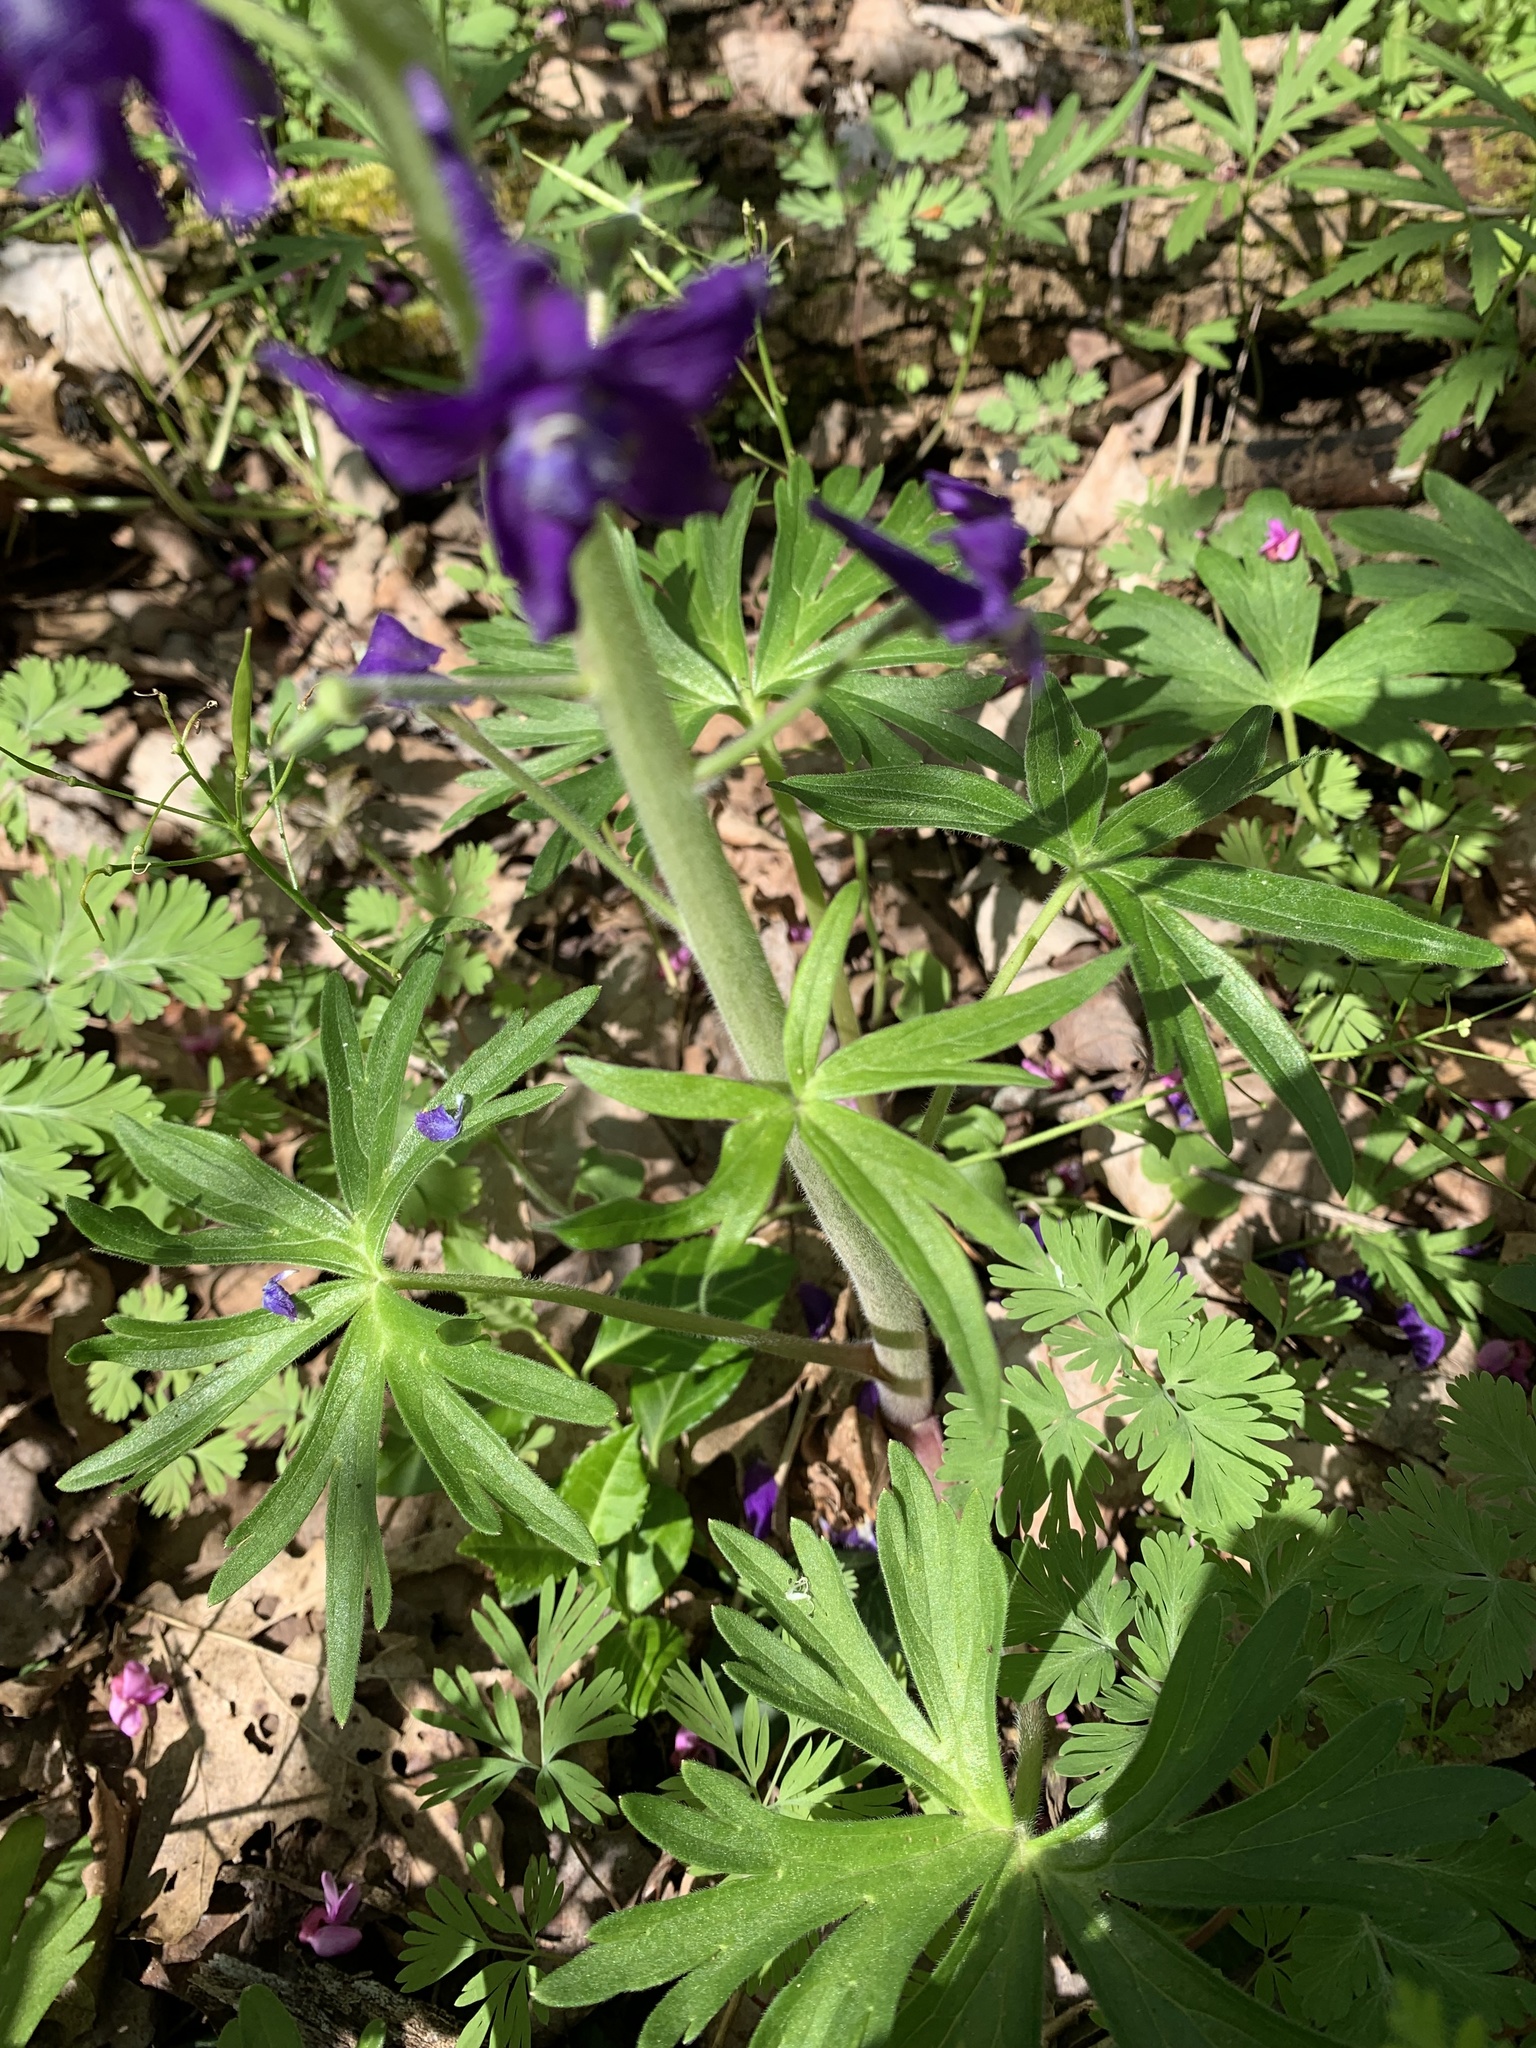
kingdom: Plantae
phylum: Tracheophyta
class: Magnoliopsida
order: Ranunculales
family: Ranunculaceae
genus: Delphinium
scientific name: Delphinium tricorne
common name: Dwarf larkspur
